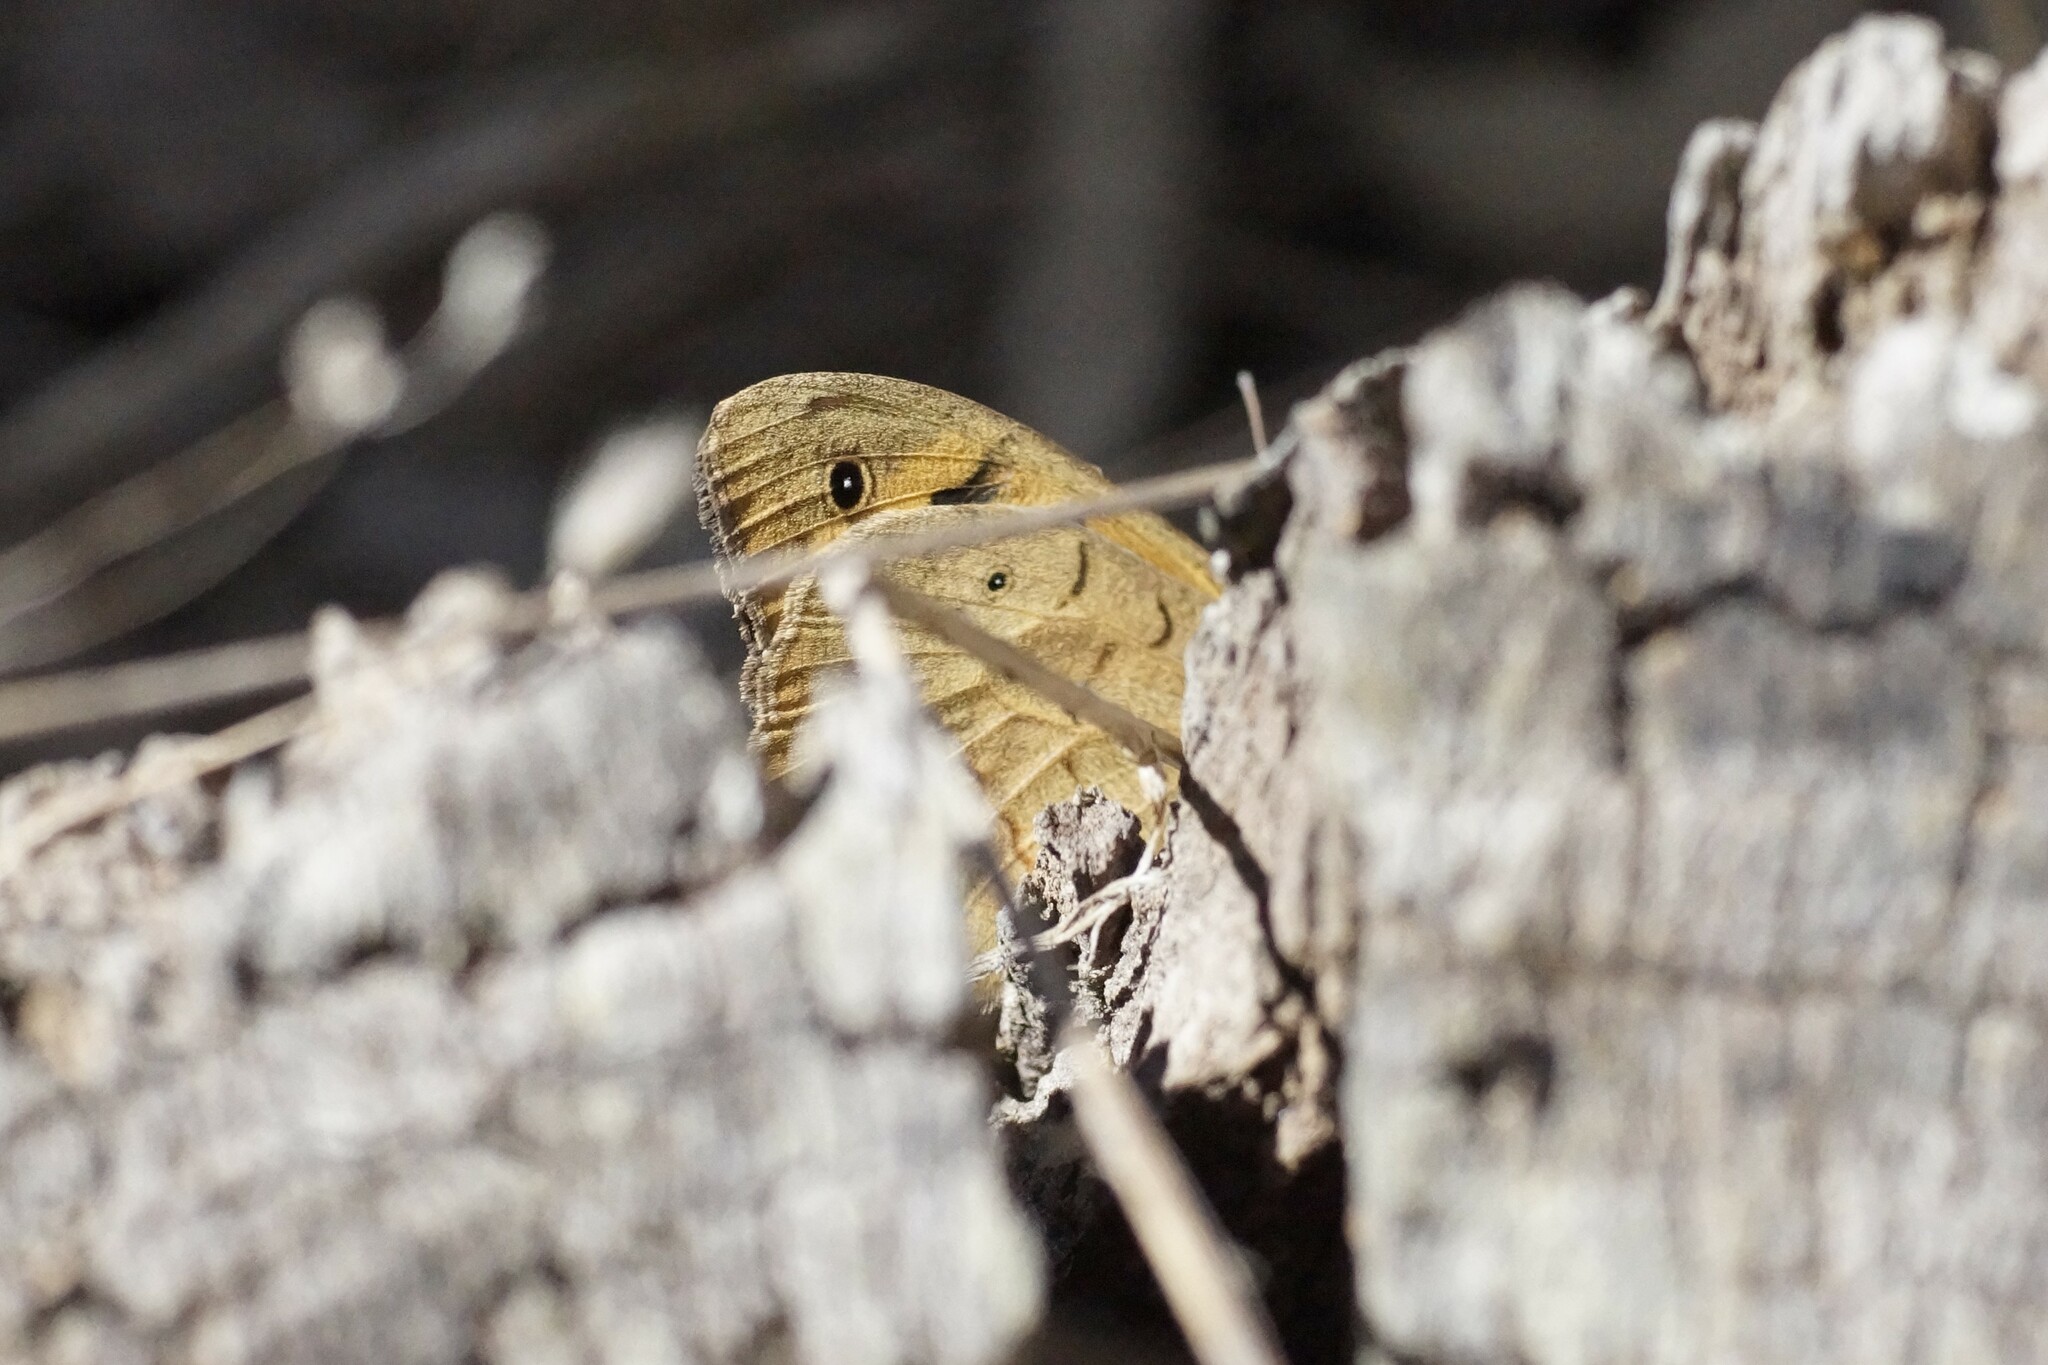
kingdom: Animalia
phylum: Arthropoda
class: Insecta
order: Lepidoptera
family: Nymphalidae
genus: Heteronympha
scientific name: Heteronympha merope
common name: Common brown
